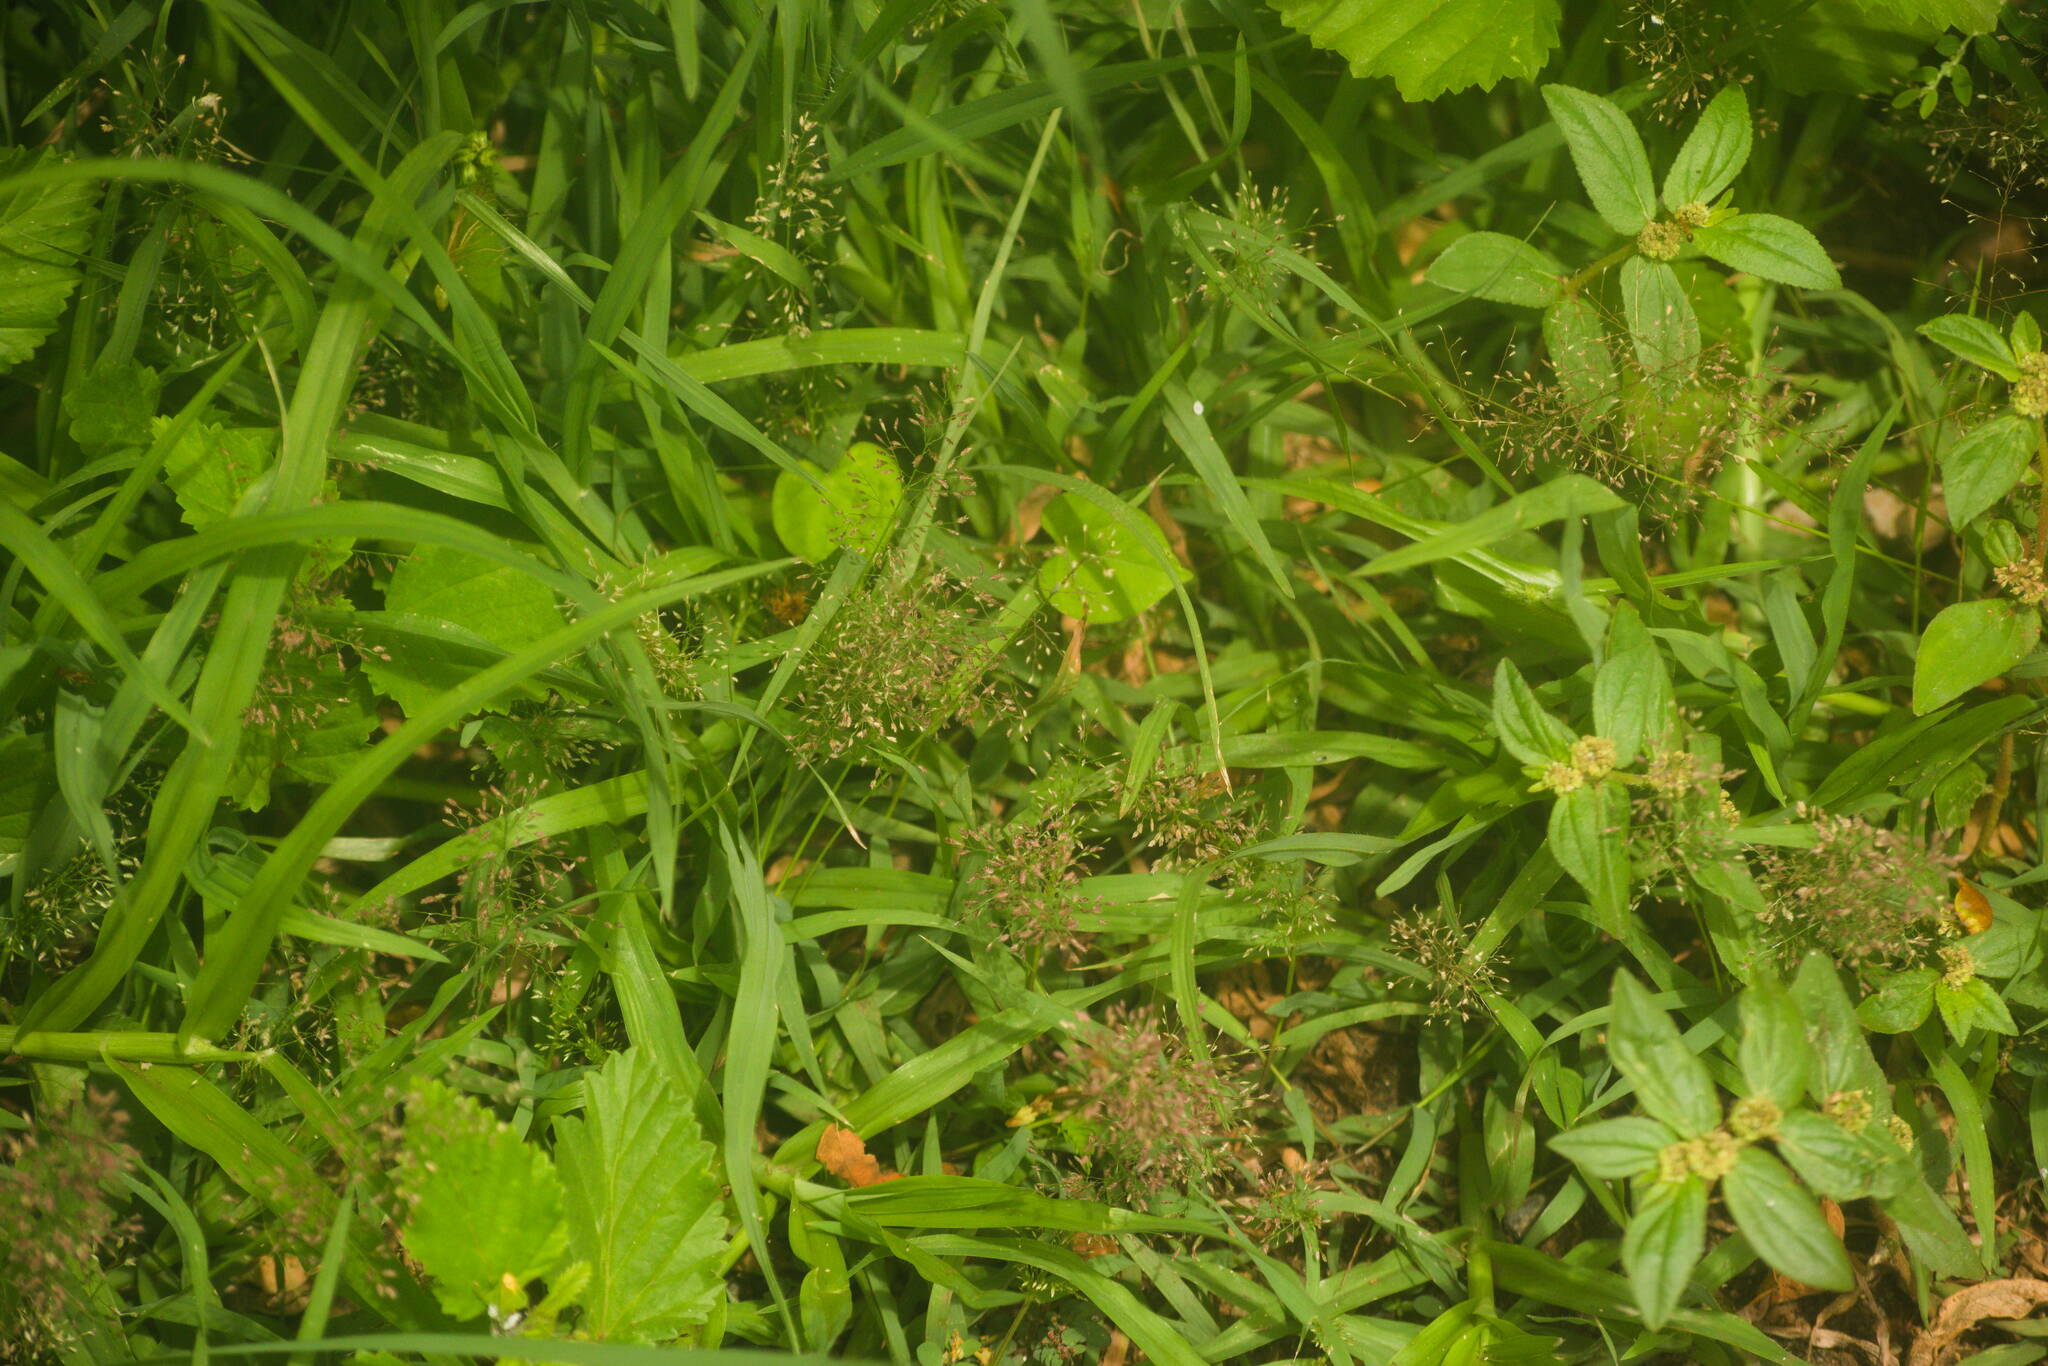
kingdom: Plantae
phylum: Tracheophyta
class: Liliopsida
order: Poales
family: Poaceae
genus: Eragrostis
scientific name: Eragrostis tenella
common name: Japanese lovegrass
